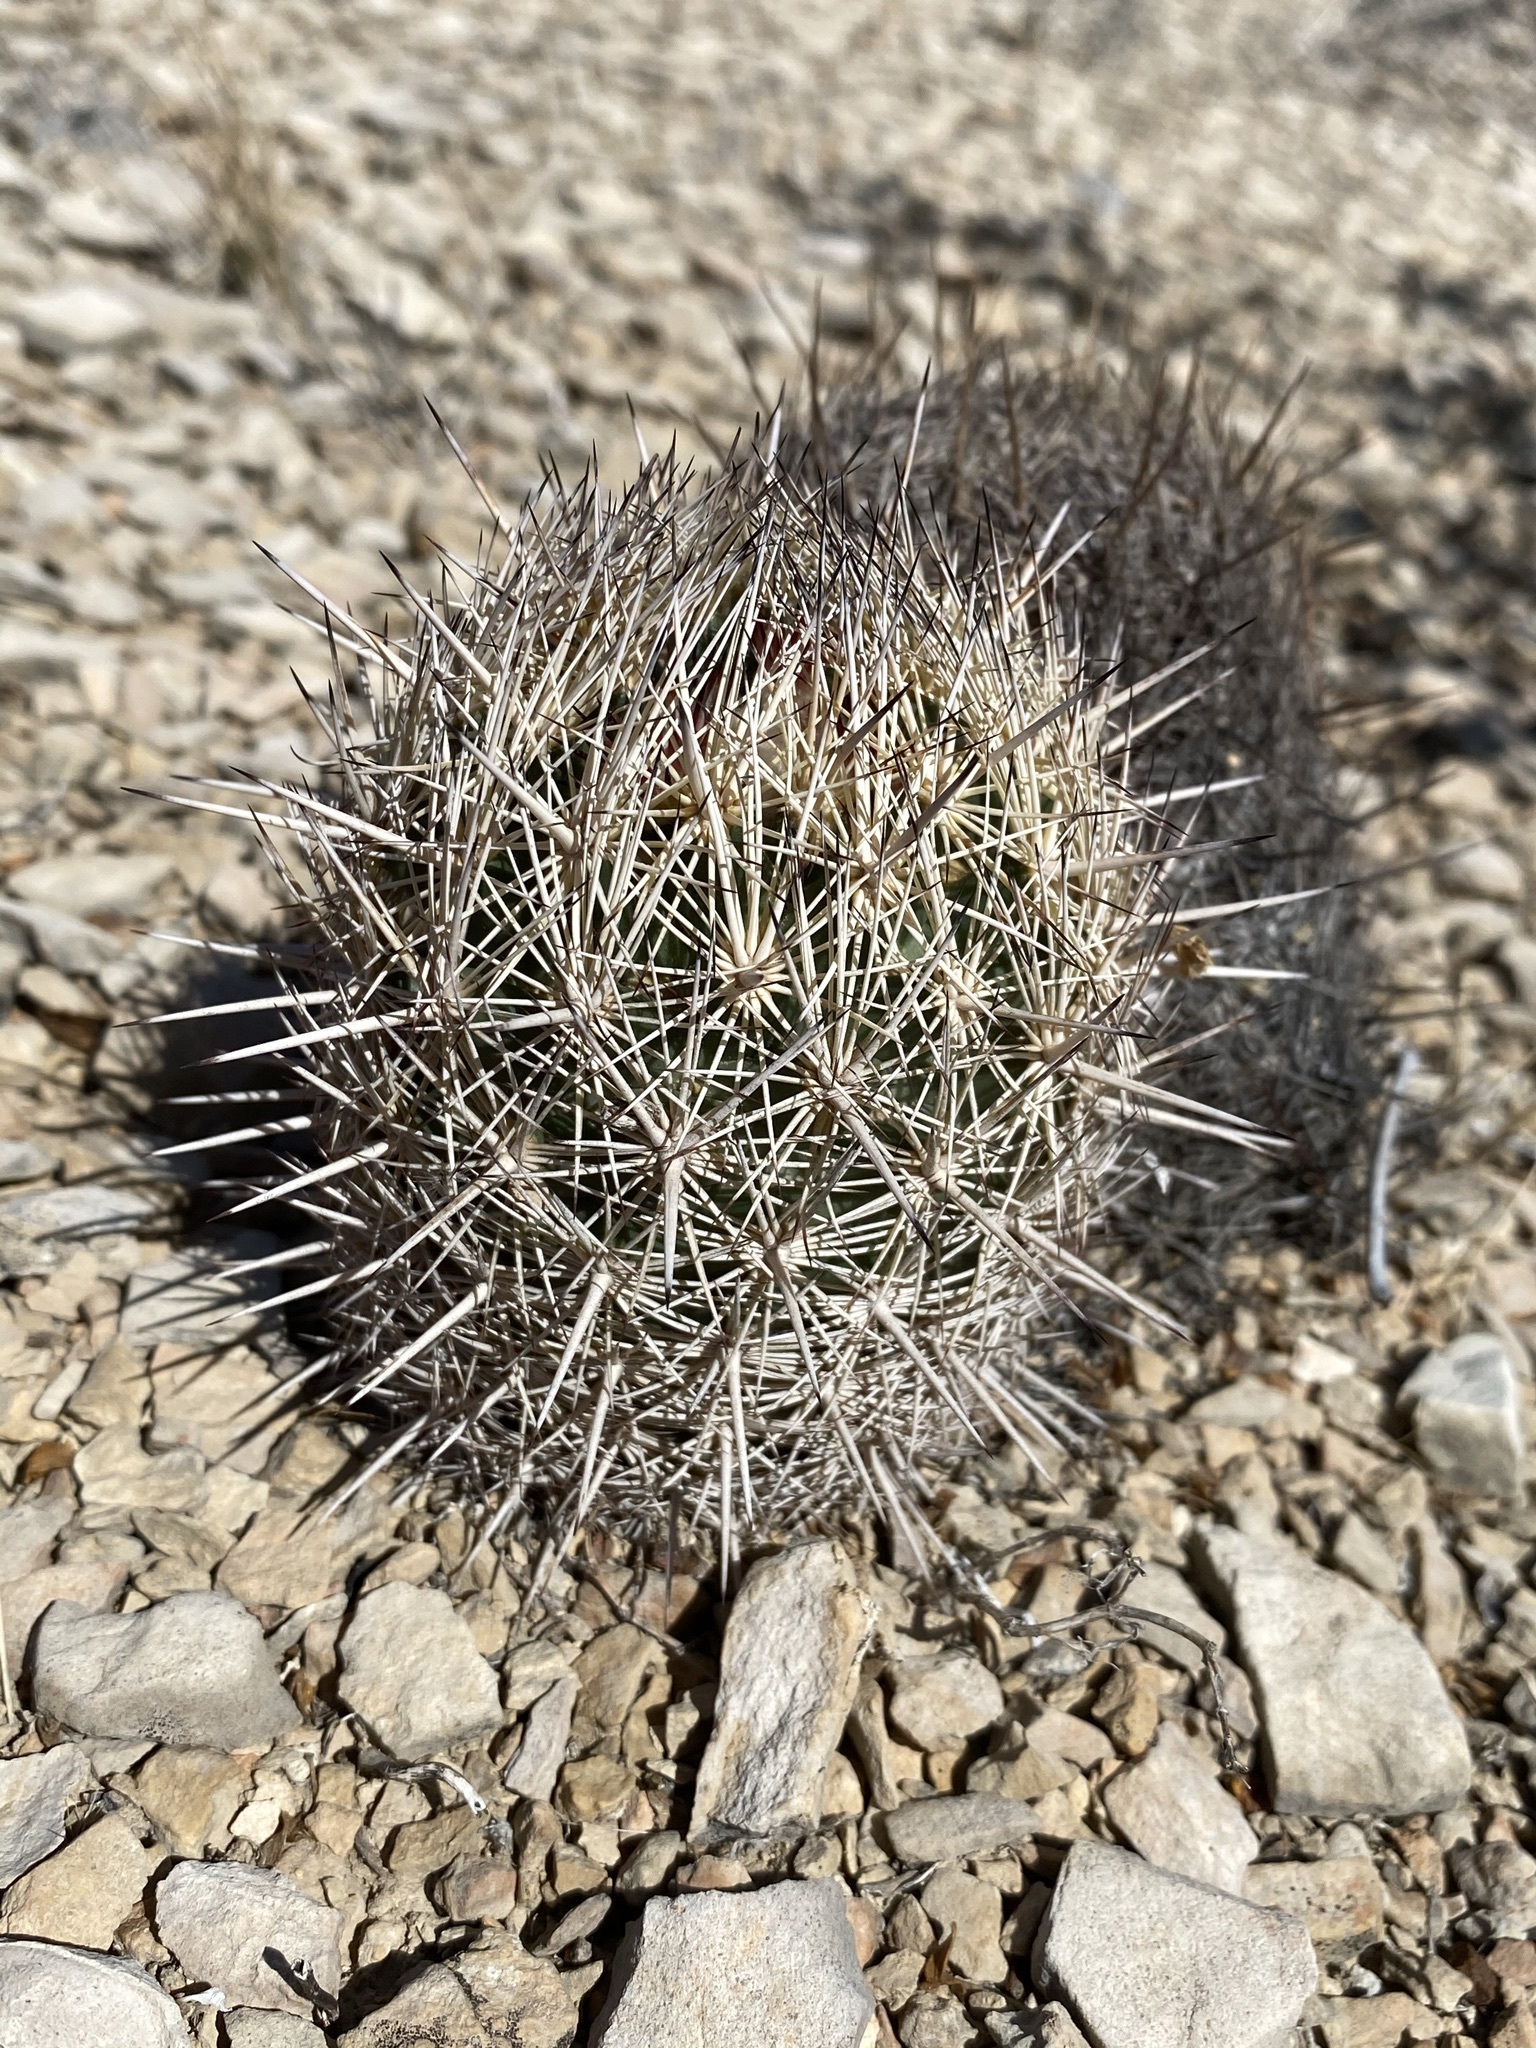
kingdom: Plantae
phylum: Tracheophyta
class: Magnoliopsida
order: Caryophyllales
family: Cactaceae
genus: Coryphantha
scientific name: Coryphantha echinus
